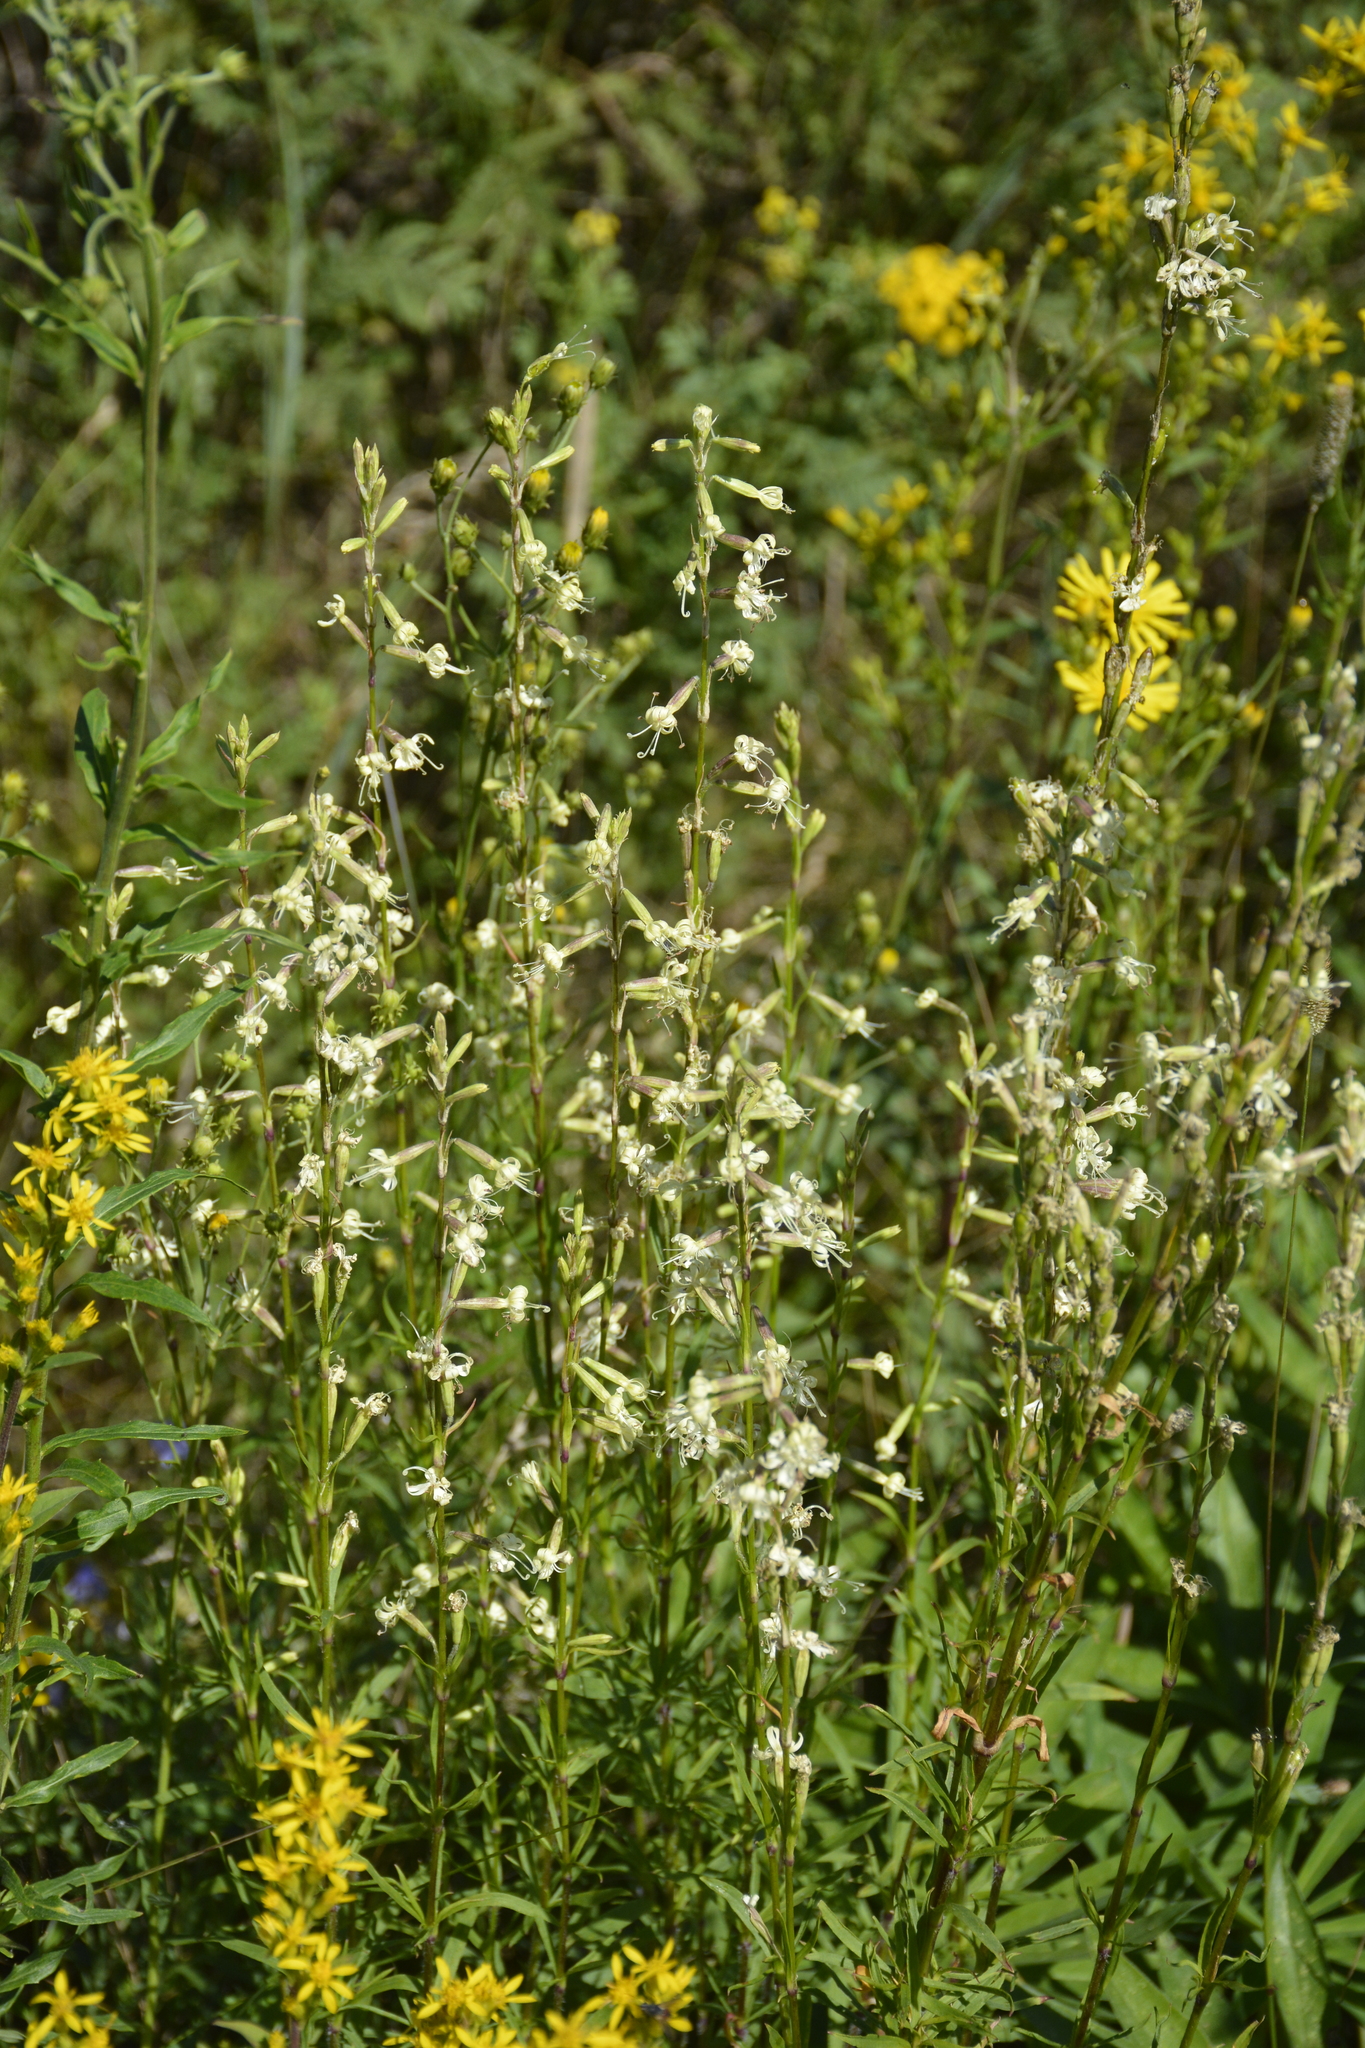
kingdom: Plantae
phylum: Tracheophyta
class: Magnoliopsida
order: Caryophyllales
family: Caryophyllaceae
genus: Silene
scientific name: Silene tatarica
